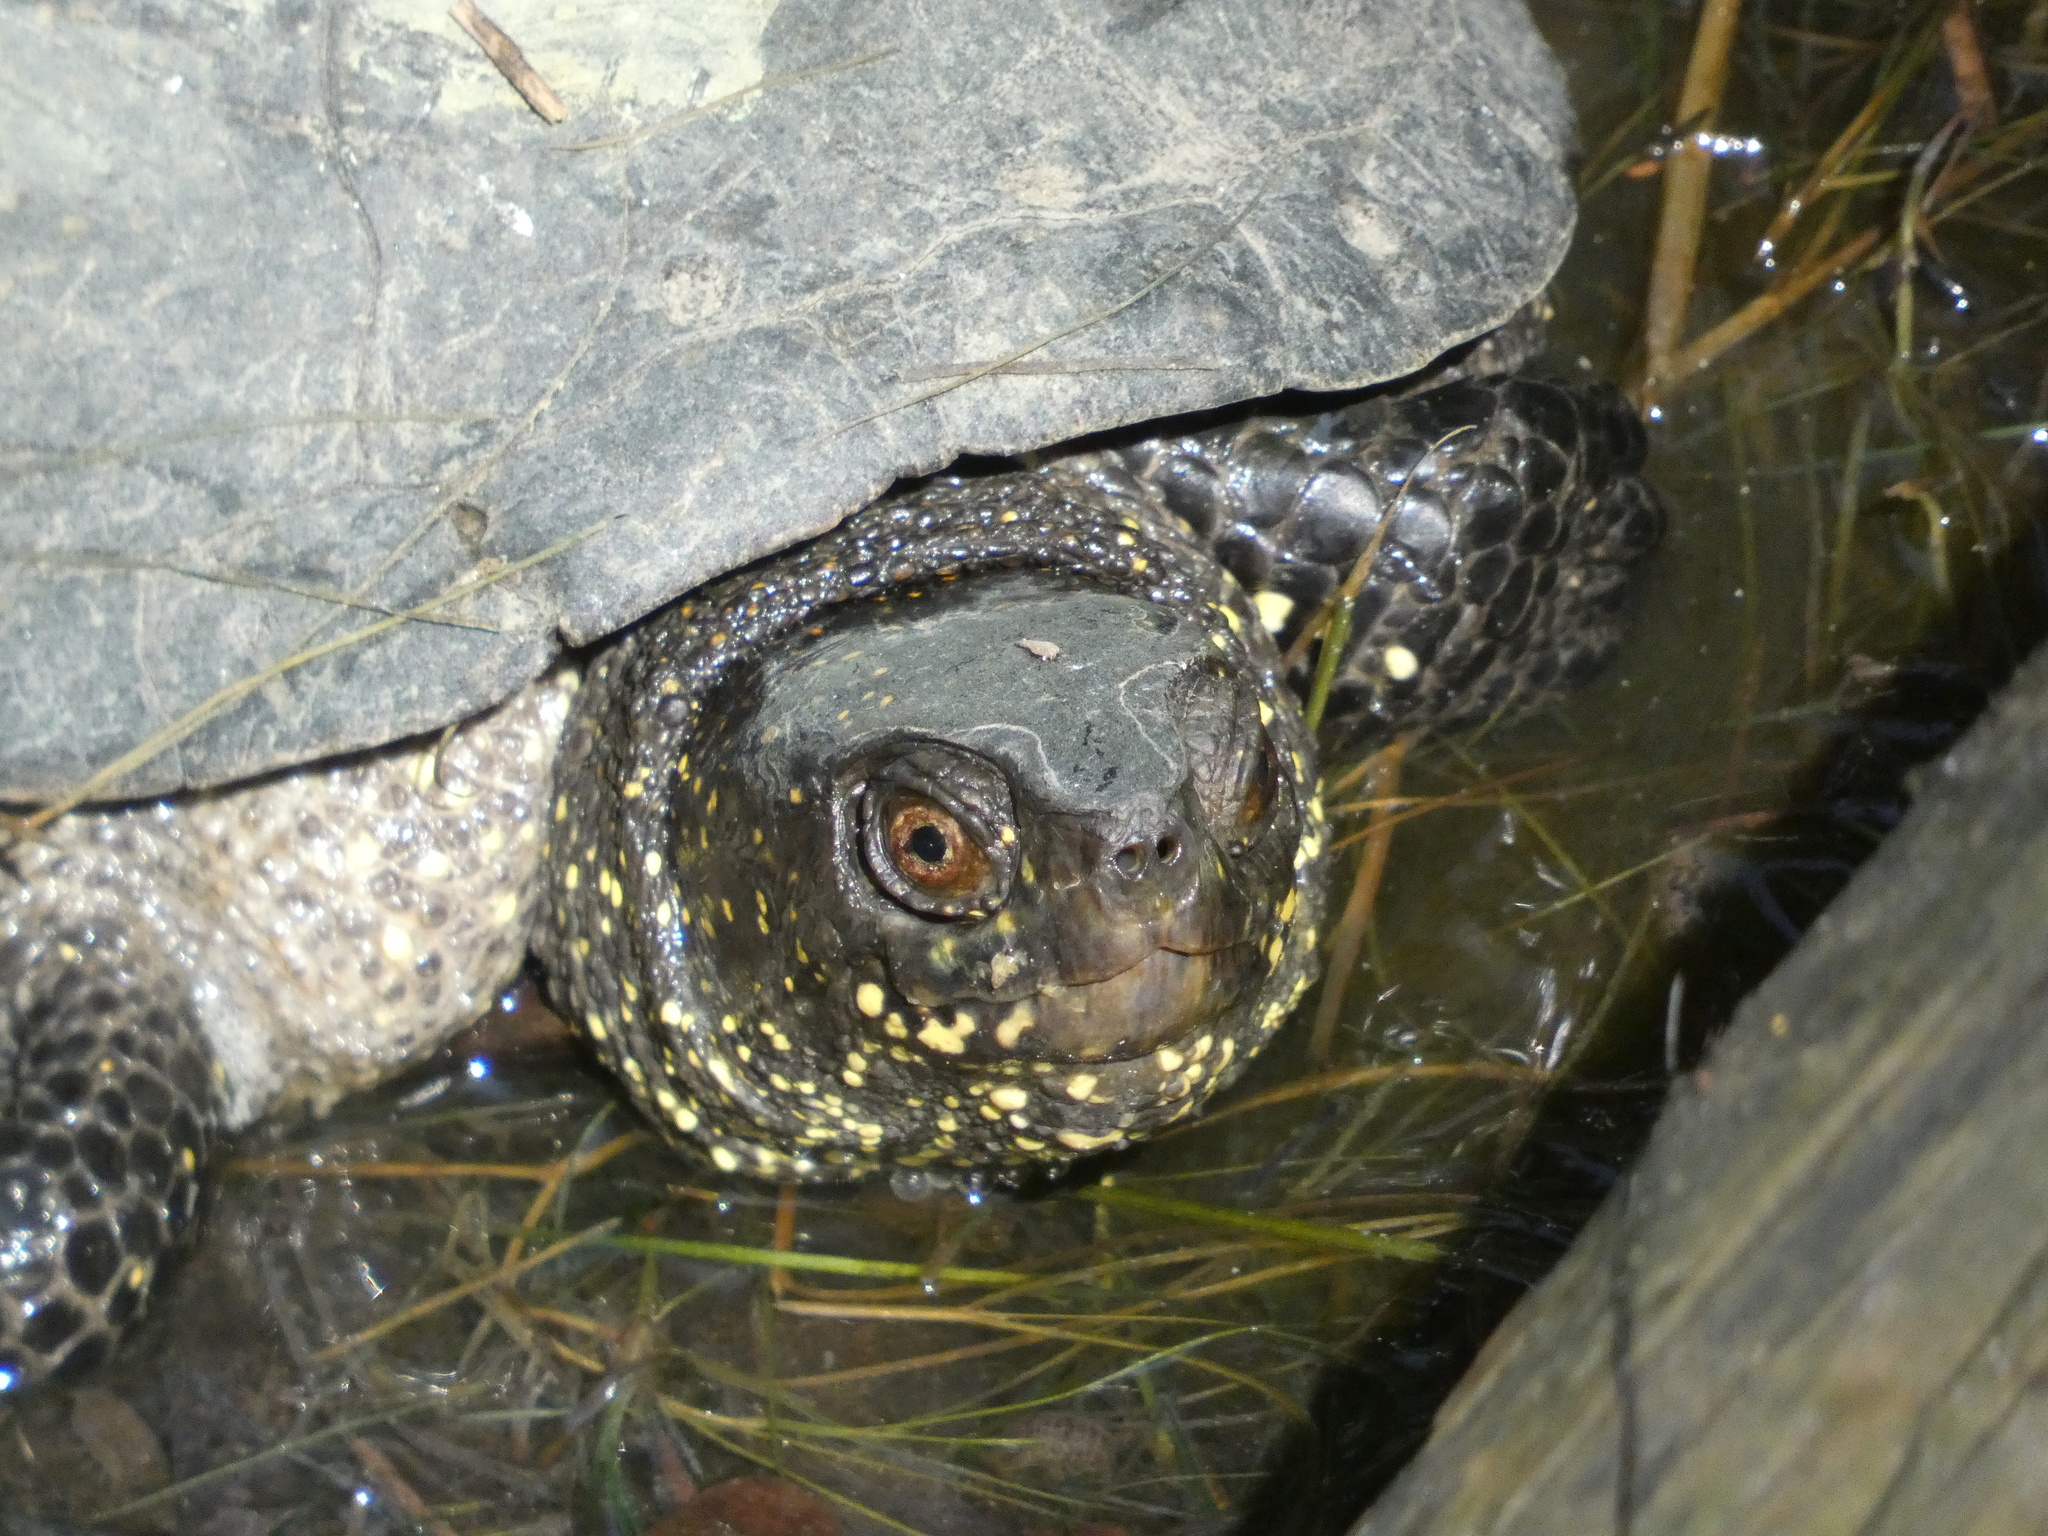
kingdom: Animalia
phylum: Chordata
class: Testudines
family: Emydidae
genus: Emys
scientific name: Emys orbicularis
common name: European pond turtle
